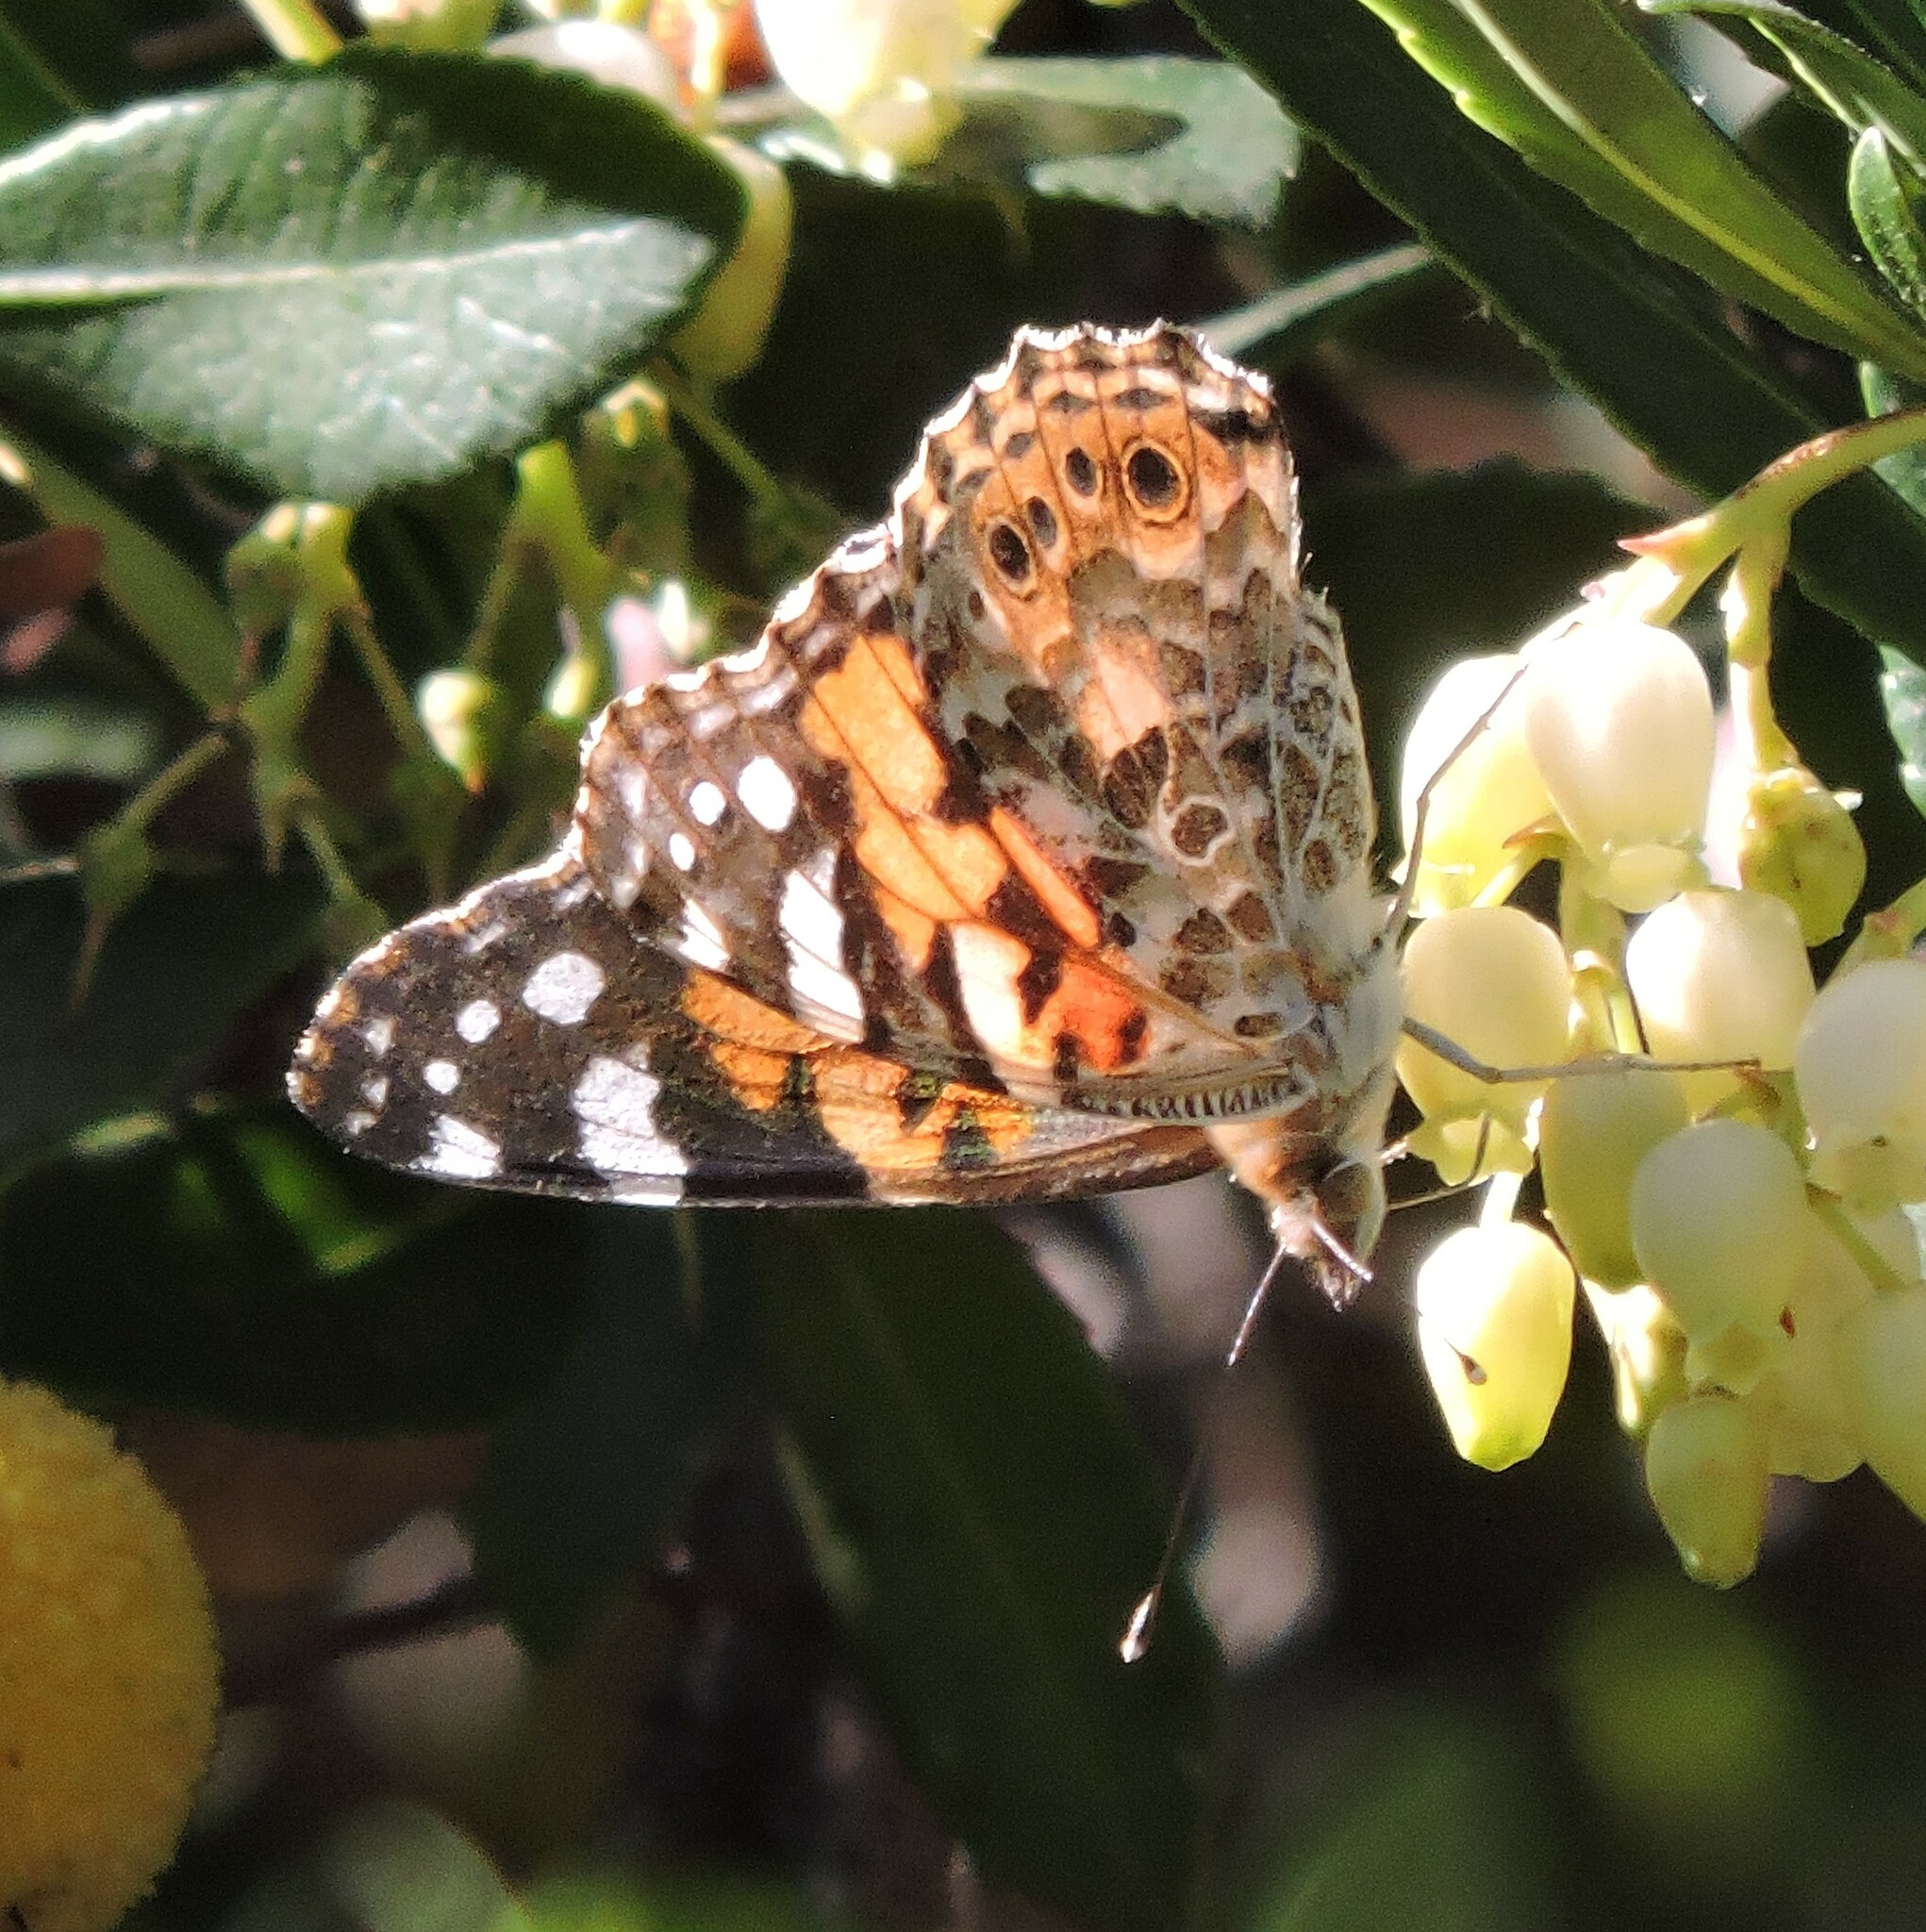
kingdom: Animalia
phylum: Arthropoda
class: Insecta
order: Lepidoptera
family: Nymphalidae
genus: Vanessa
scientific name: Vanessa cardui
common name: Painted lady
